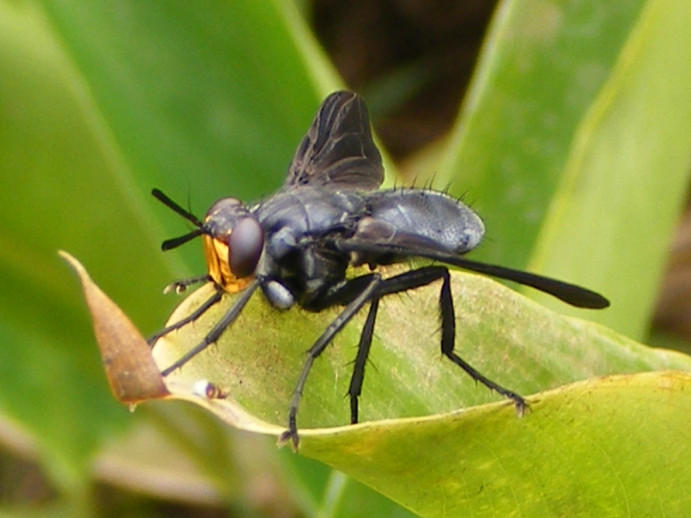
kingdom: Animalia
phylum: Arthropoda
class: Insecta
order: Diptera
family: Tachinidae
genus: Hermya
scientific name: Hermya diabolus
